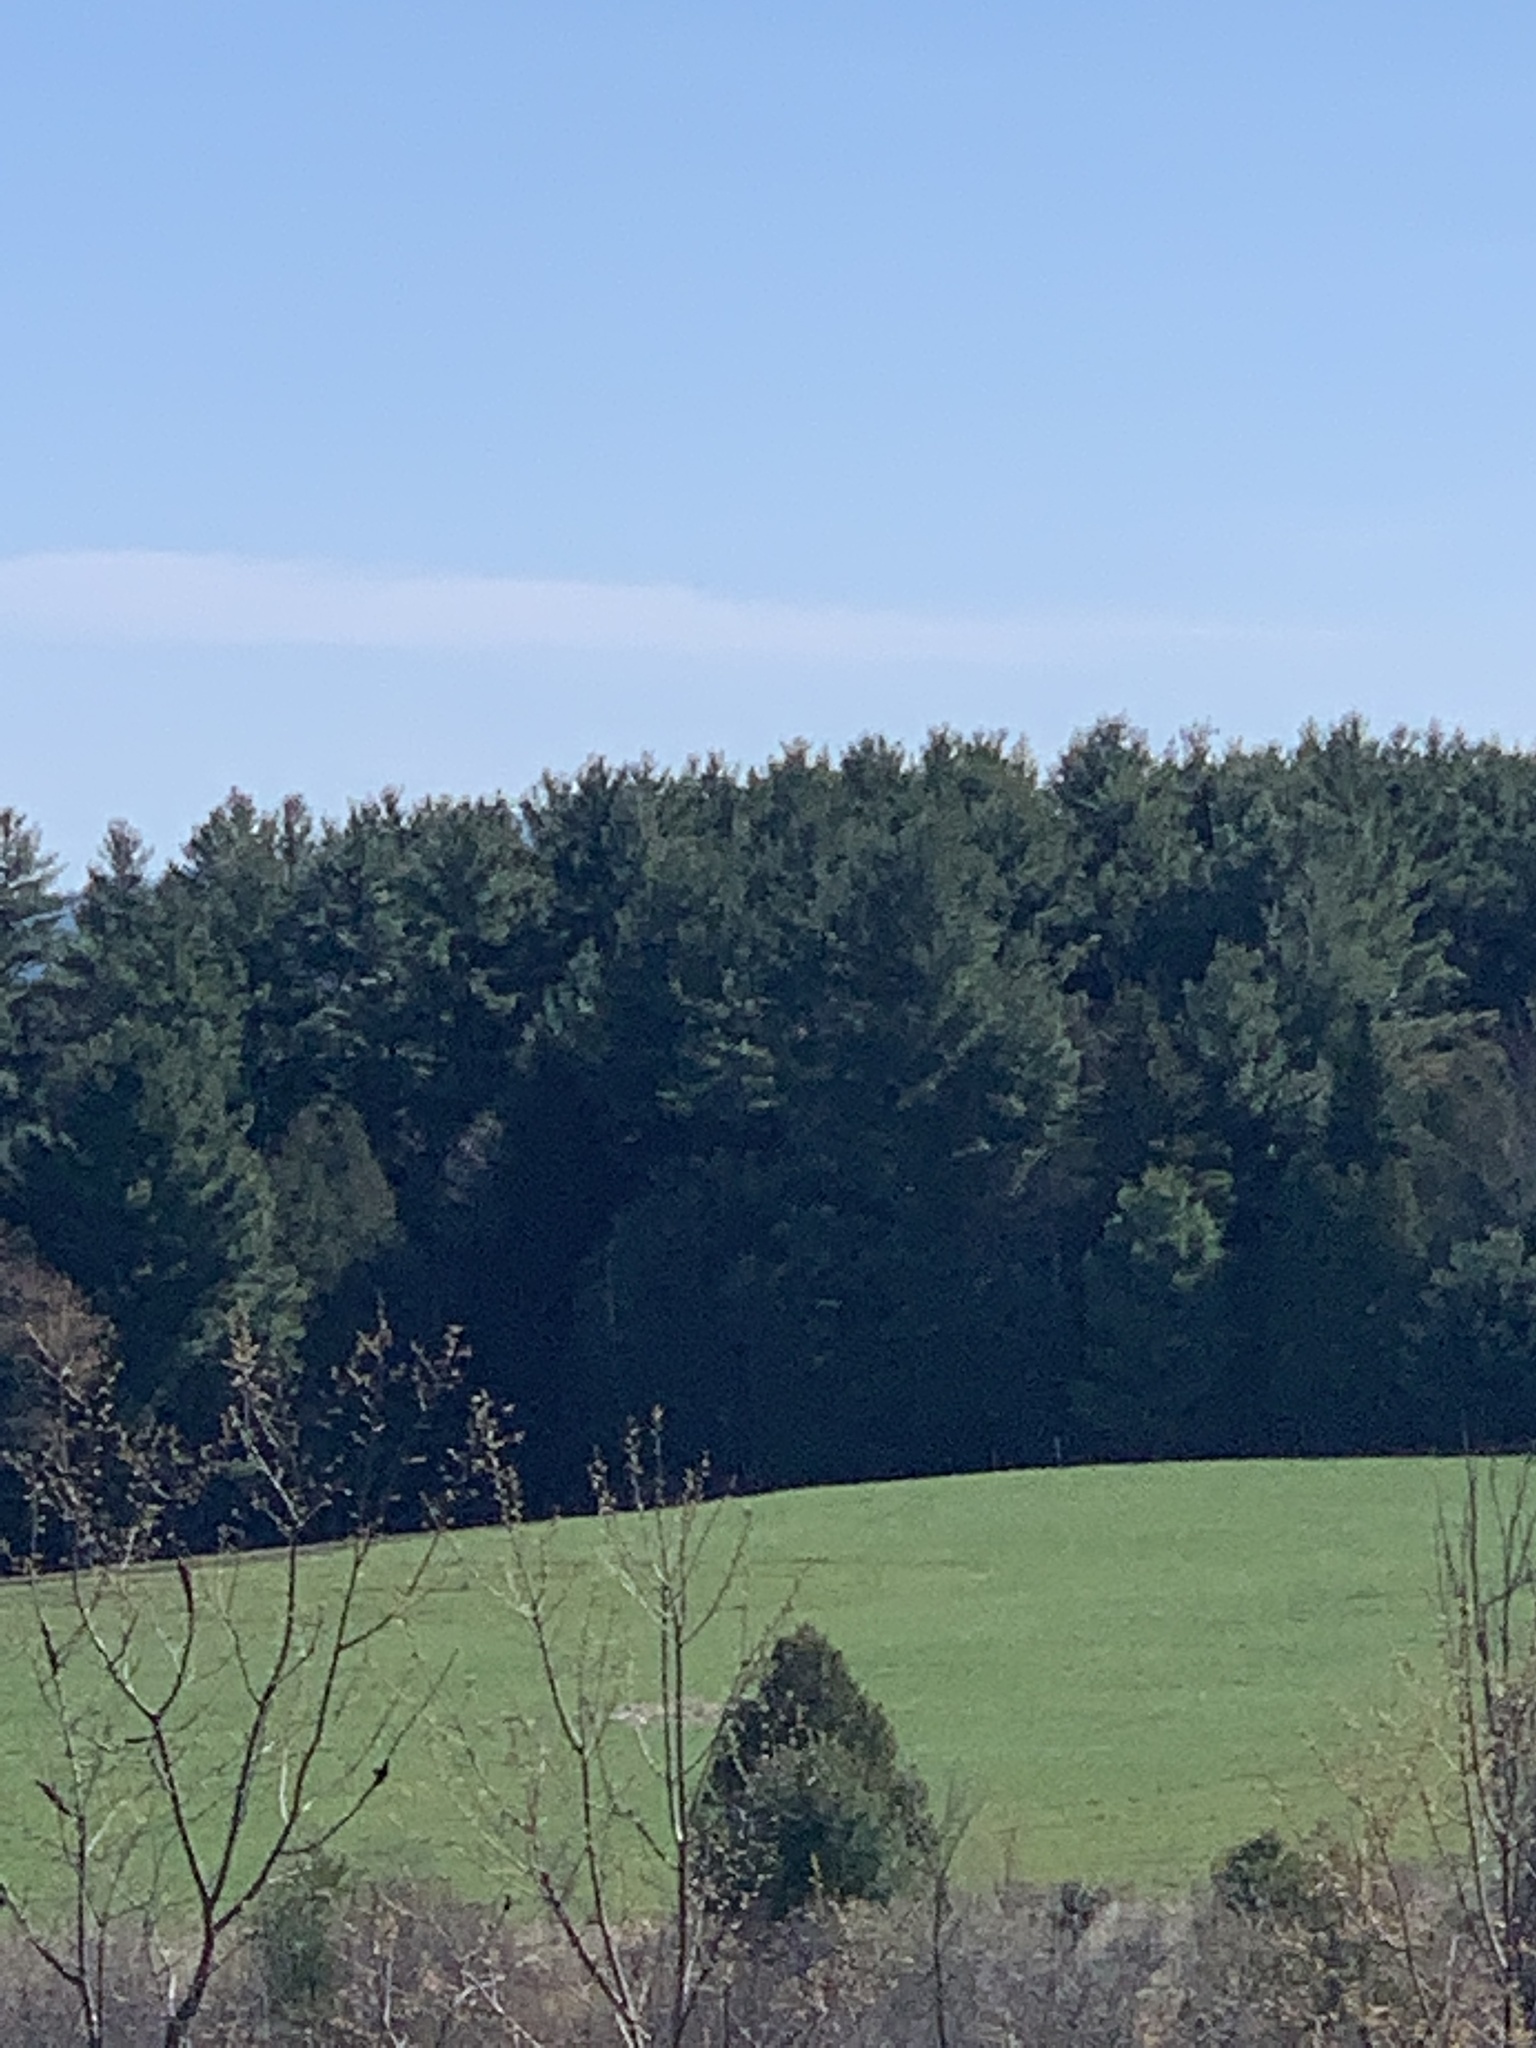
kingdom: Plantae
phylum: Tracheophyta
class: Pinopsida
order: Pinales
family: Pinaceae
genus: Pinus
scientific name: Pinus strobus
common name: Weymouth pine
